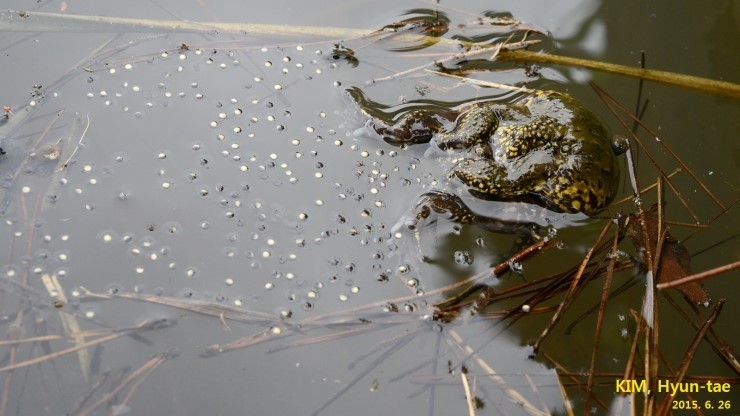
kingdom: Animalia
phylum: Chordata
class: Amphibia
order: Anura
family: Microhylidae
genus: Kaloula
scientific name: Kaloula borealis
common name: Boreal digging frog
